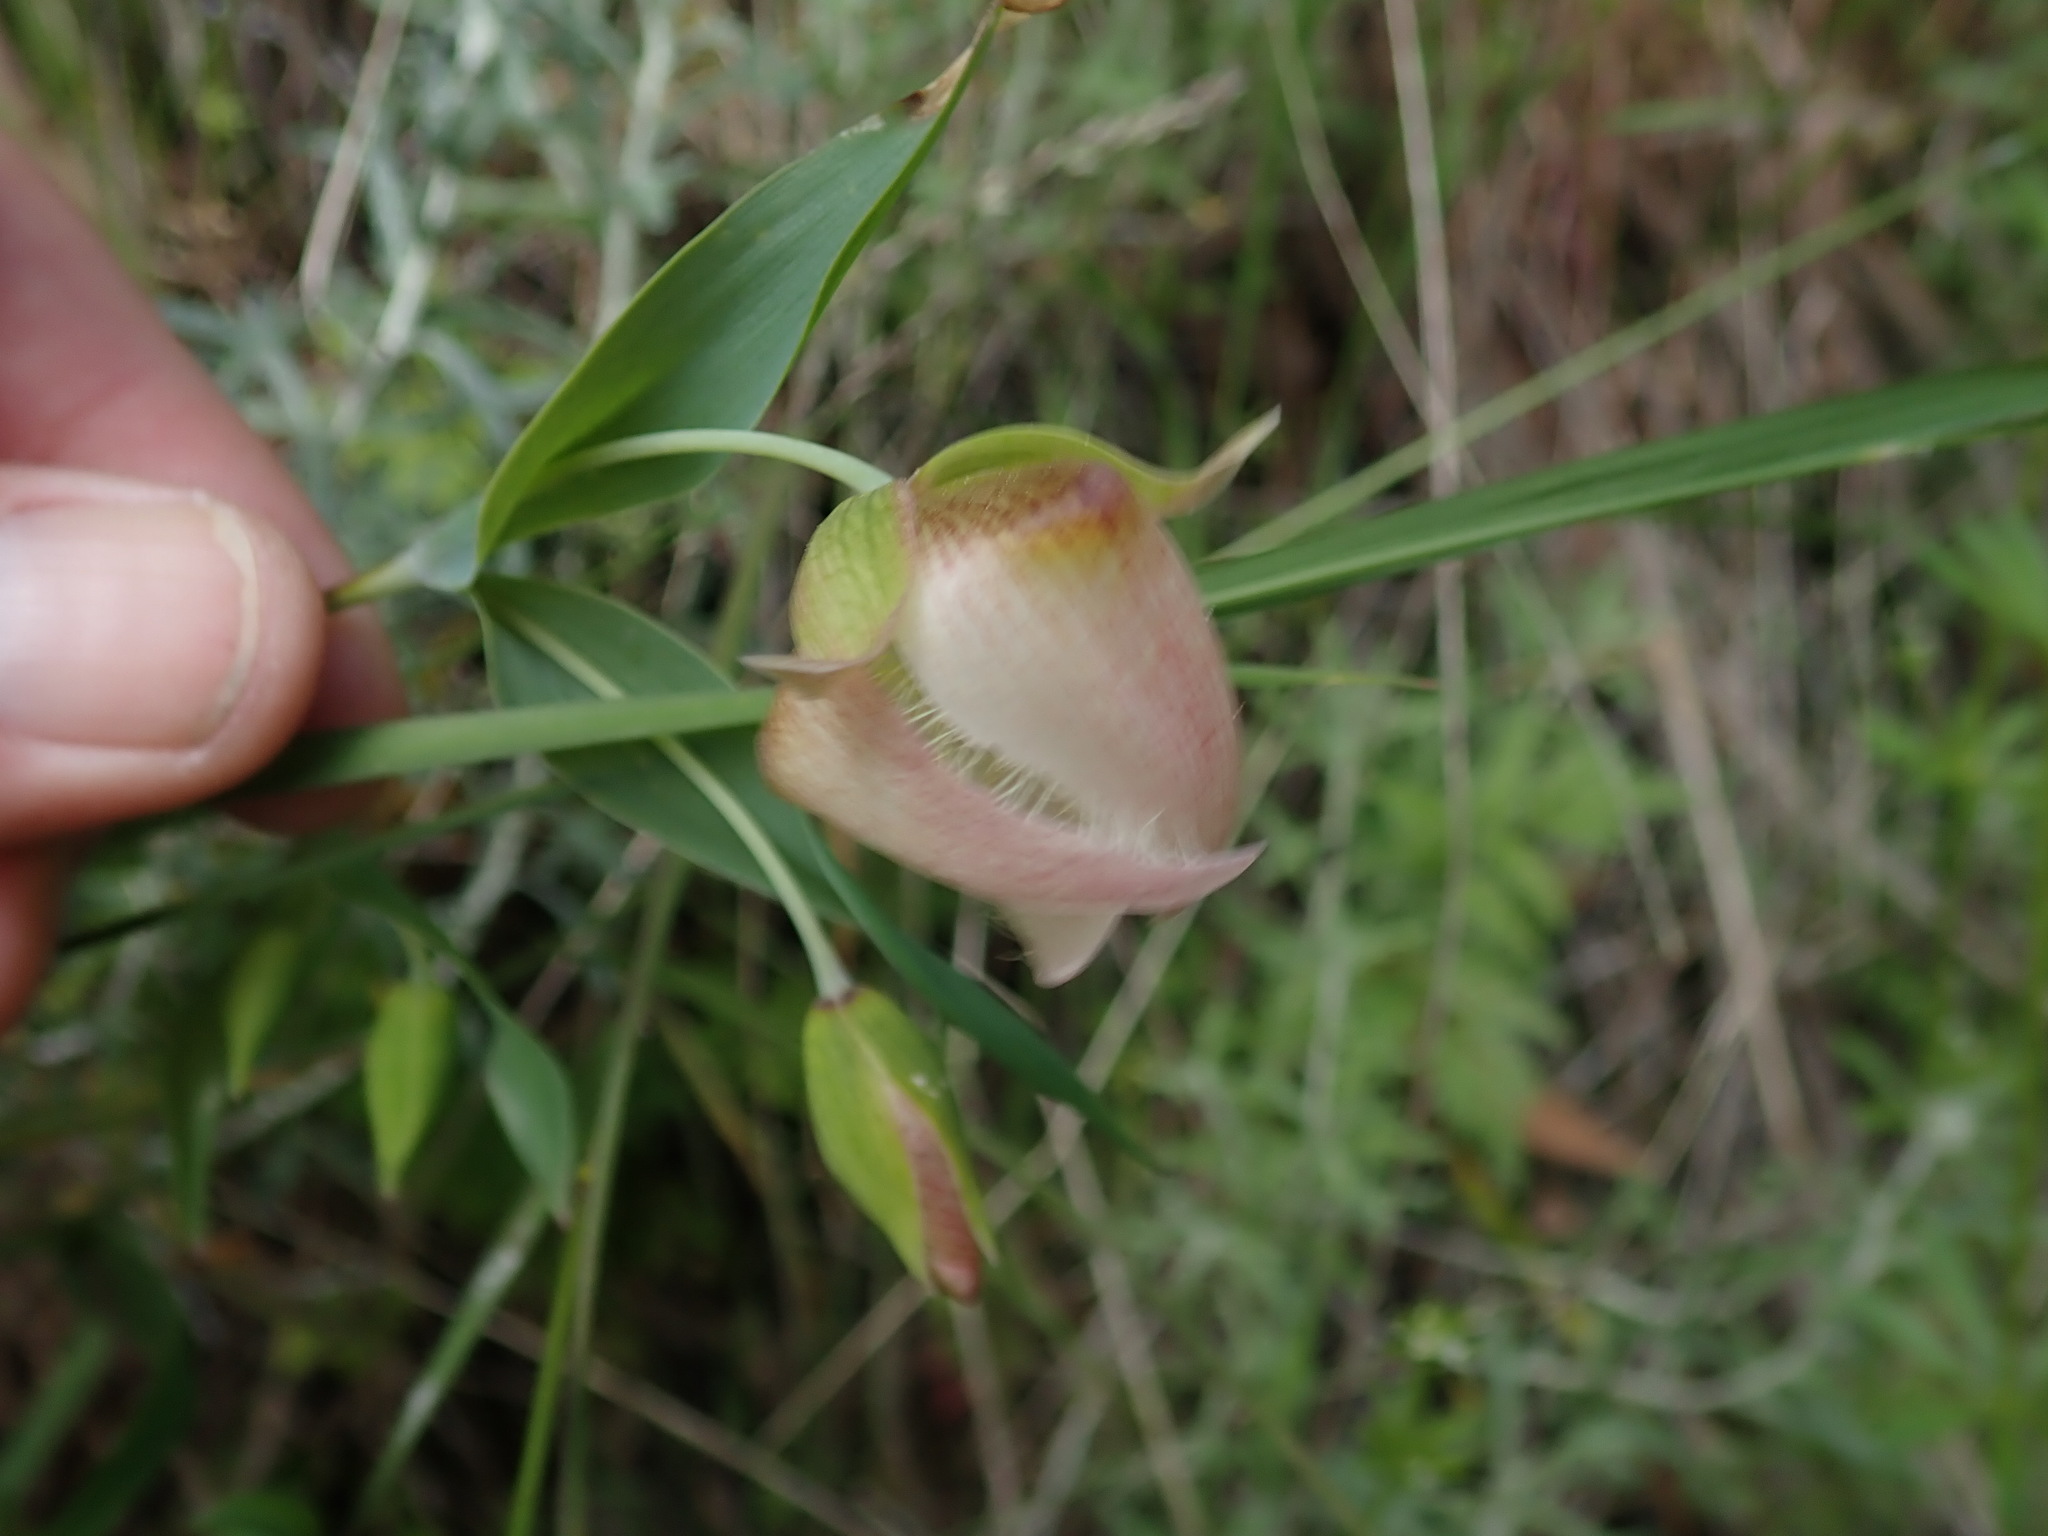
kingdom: Plantae
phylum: Tracheophyta
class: Liliopsida
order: Liliales
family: Liliaceae
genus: Calochortus
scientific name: Calochortus albus
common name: Fairy-lantern
